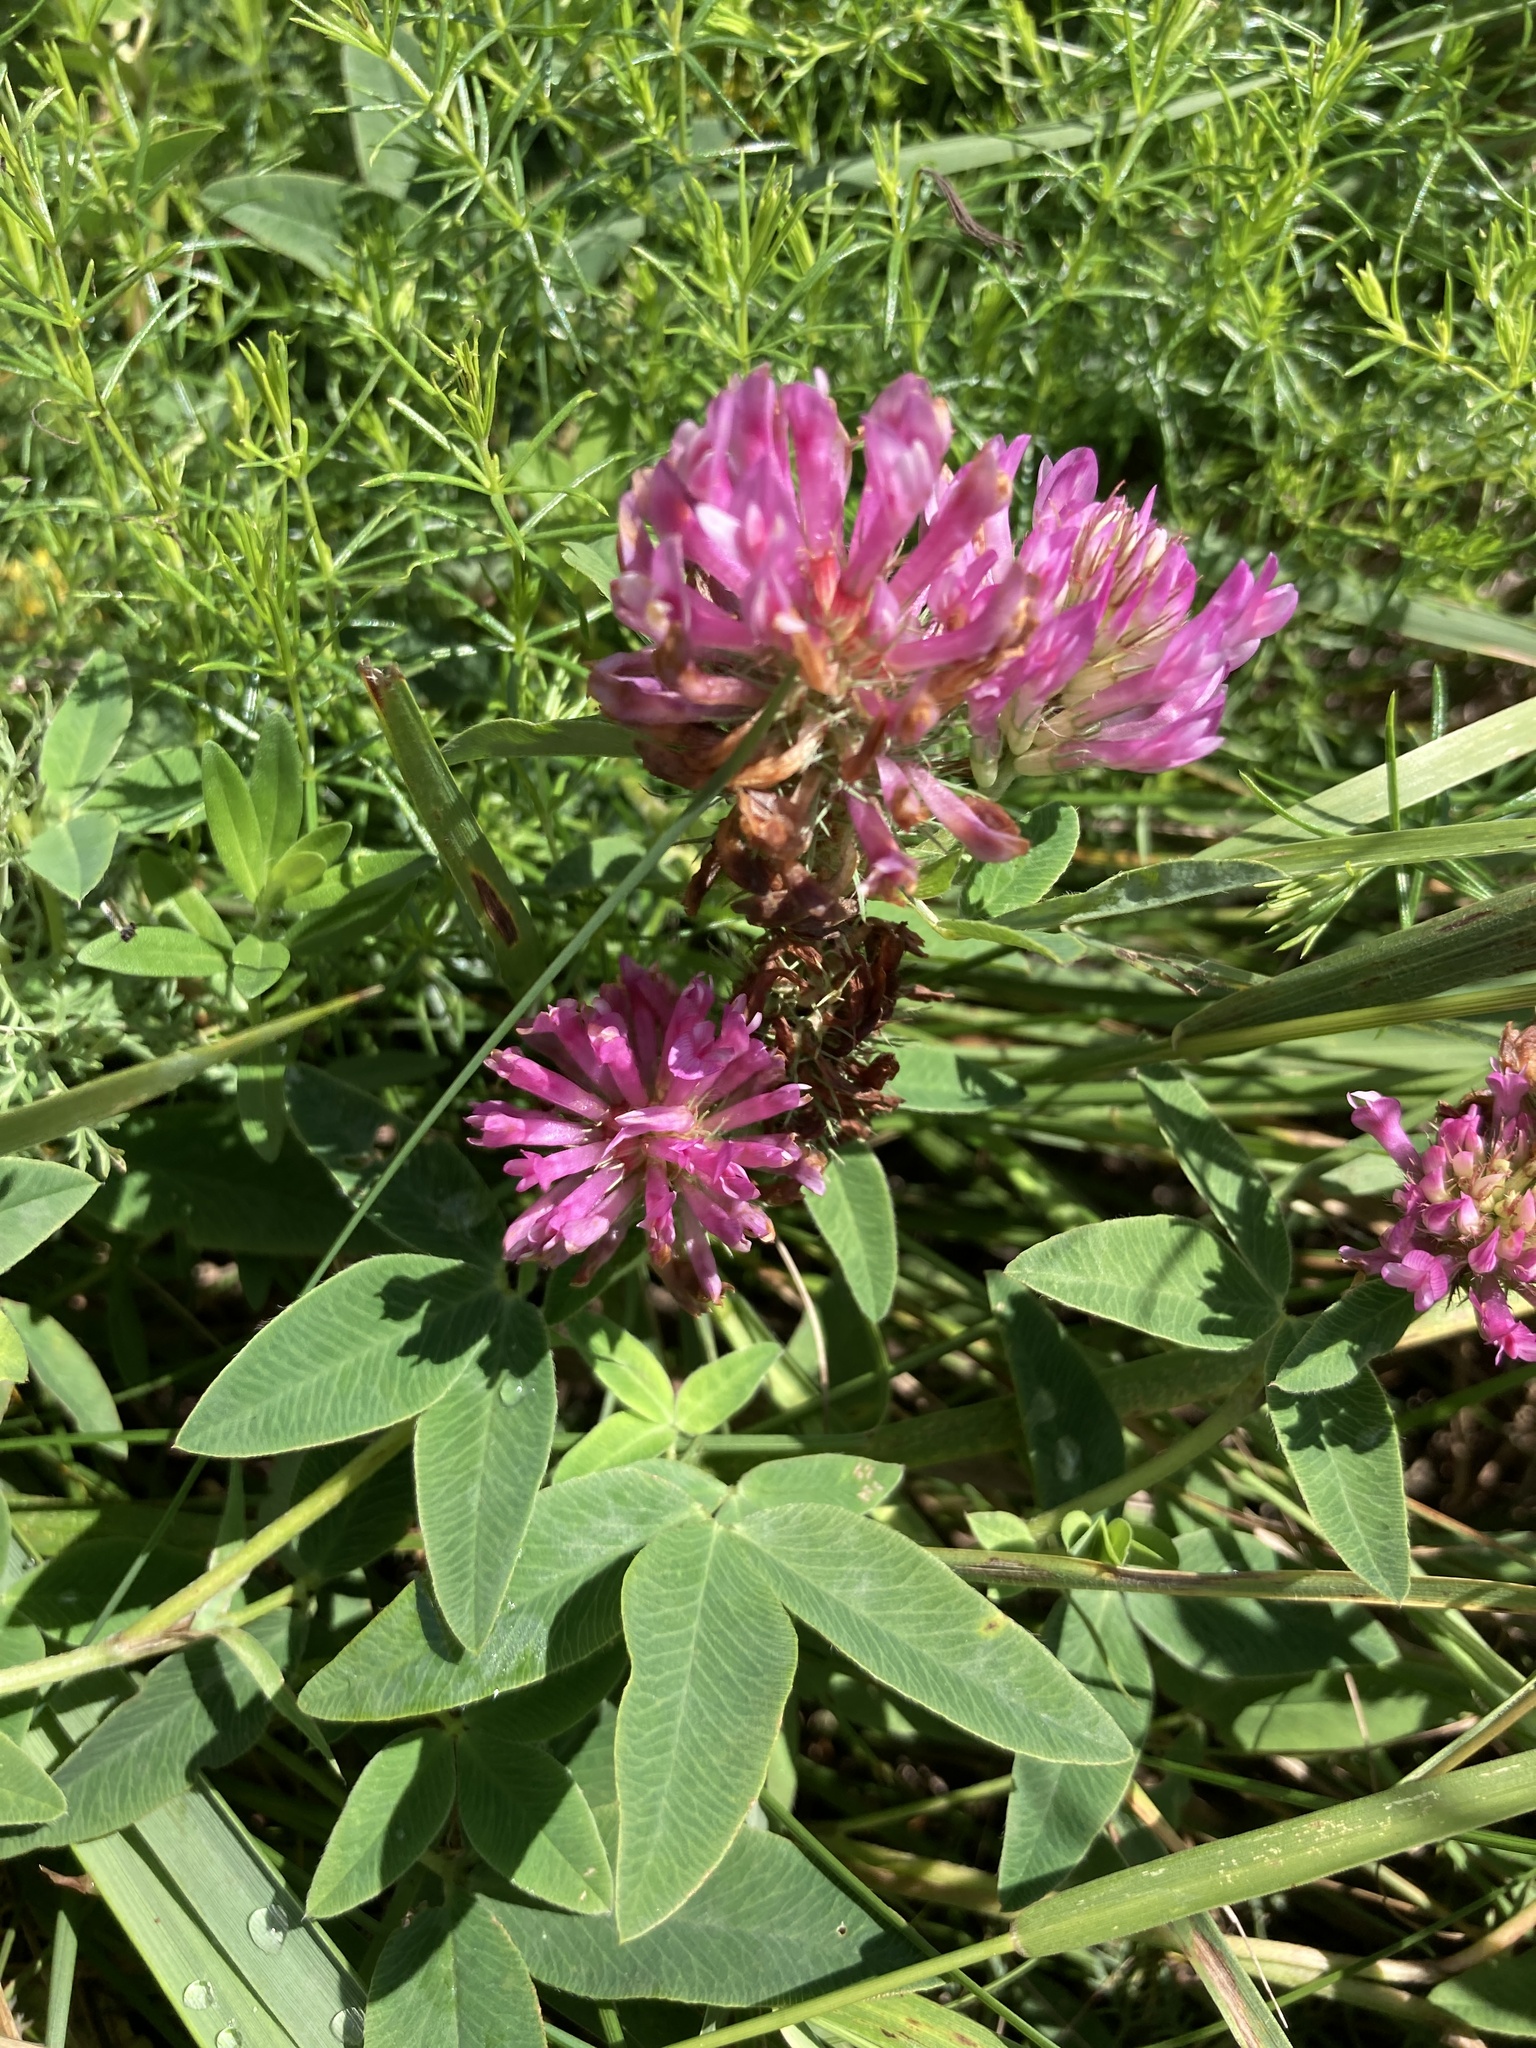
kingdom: Plantae
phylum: Tracheophyta
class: Magnoliopsida
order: Fabales
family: Fabaceae
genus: Trifolium
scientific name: Trifolium medium
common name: Zigzag clover
